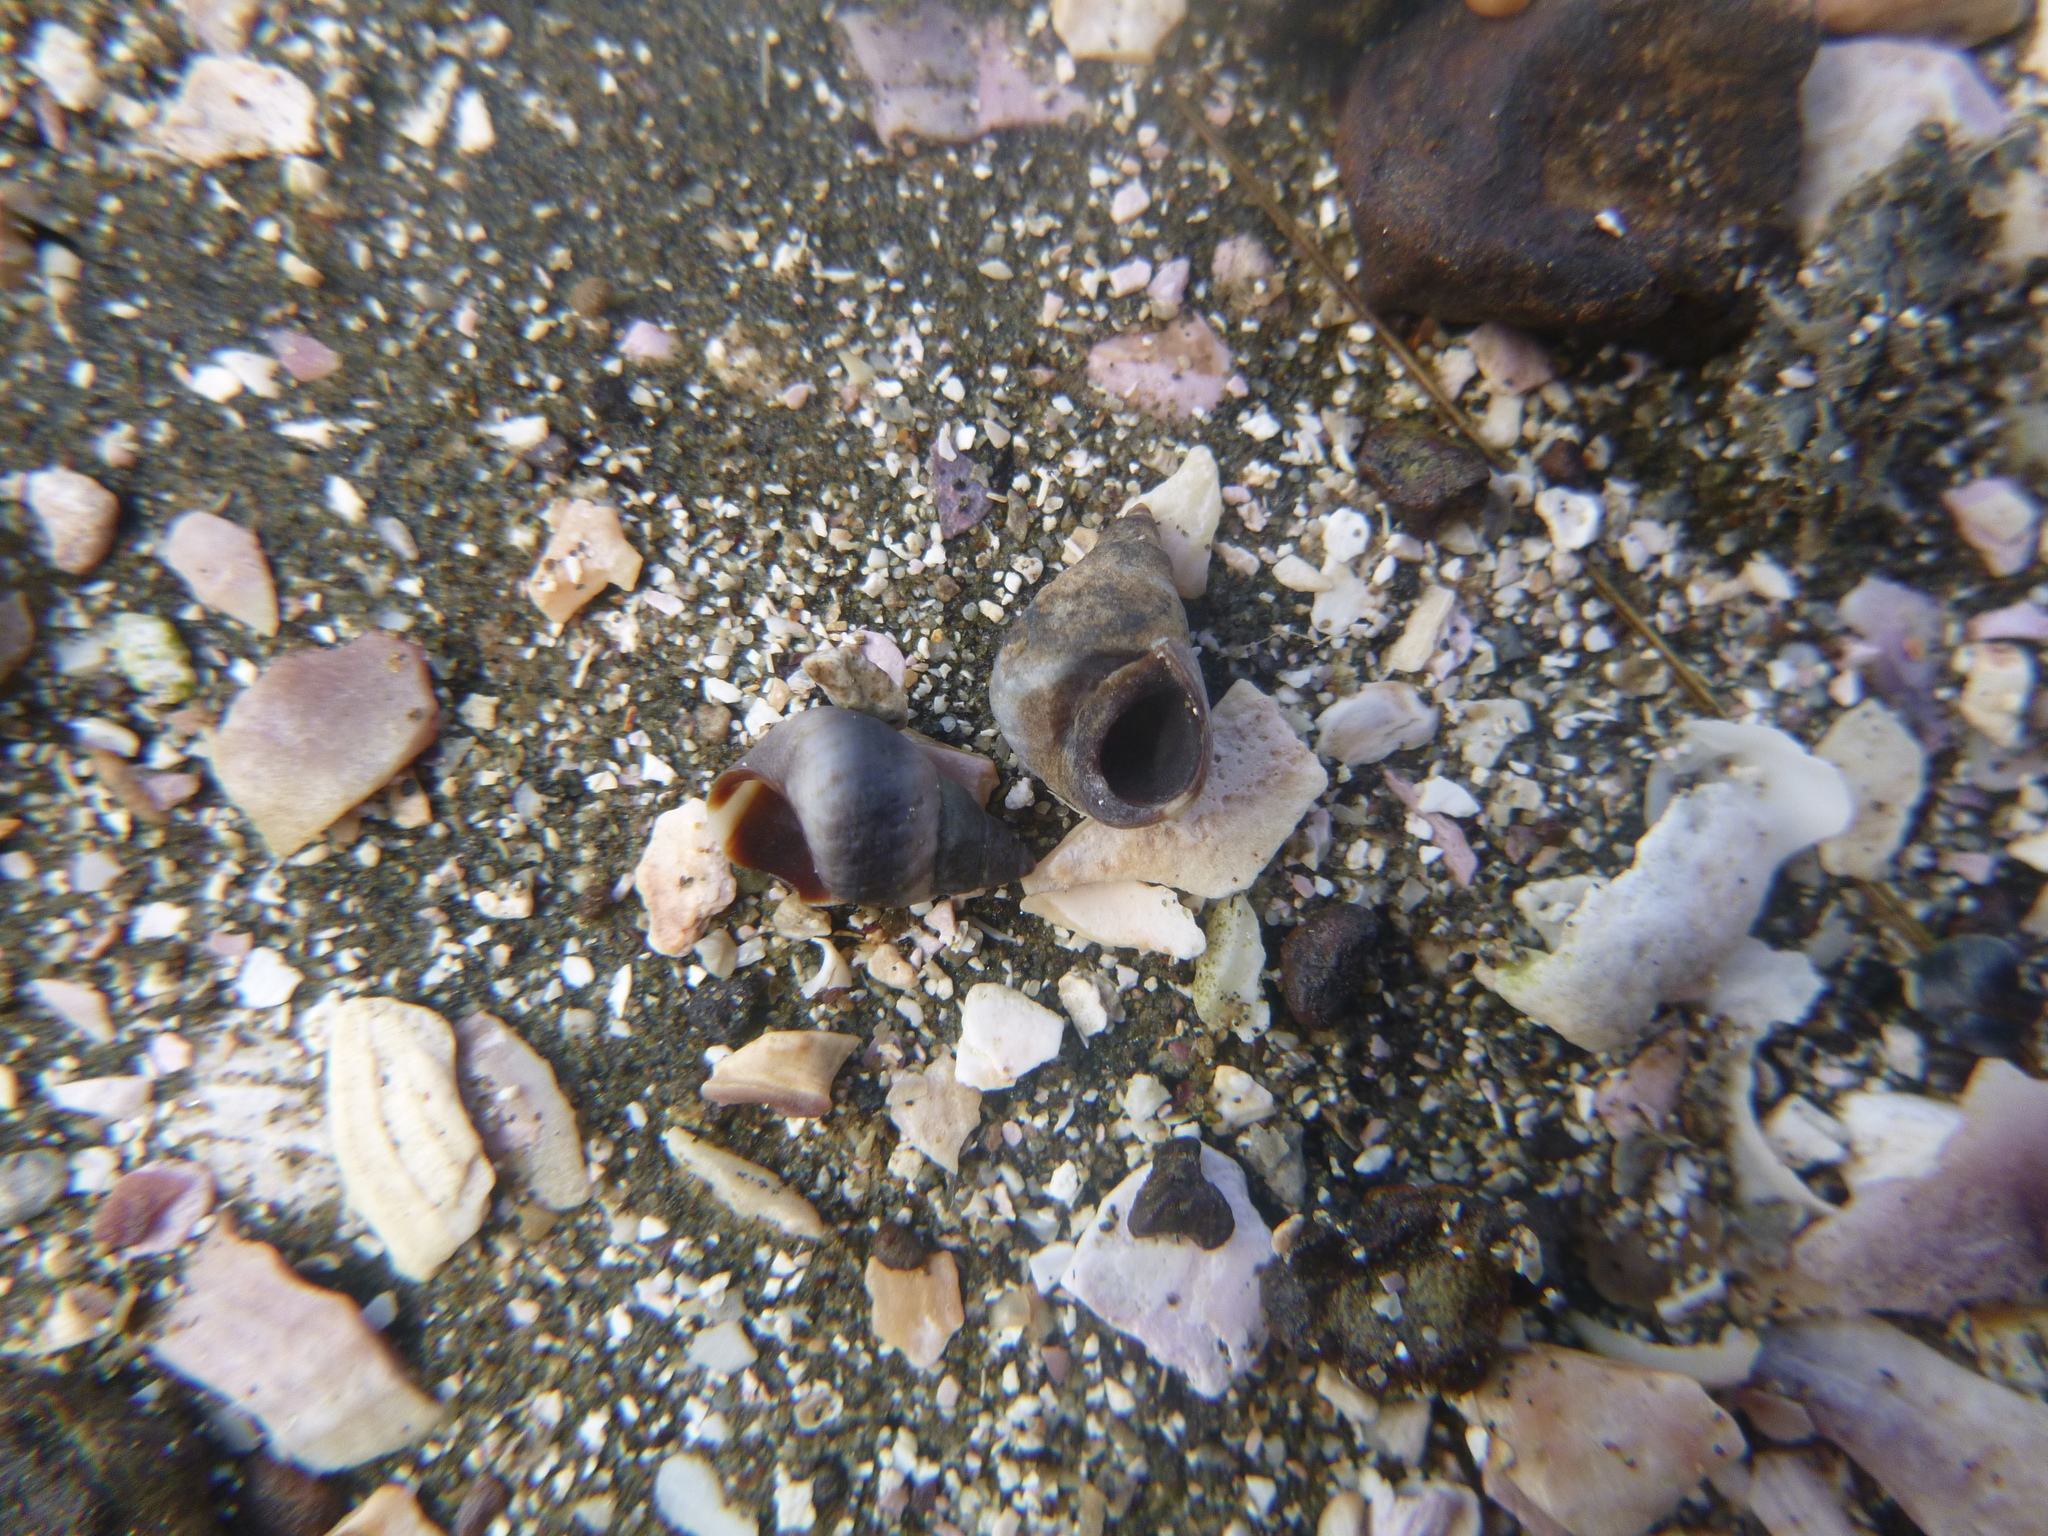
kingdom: Animalia
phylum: Mollusca
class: Gastropoda
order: Littorinimorpha
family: Littorinidae
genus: Austrolittorina
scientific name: Austrolittorina antipodum
